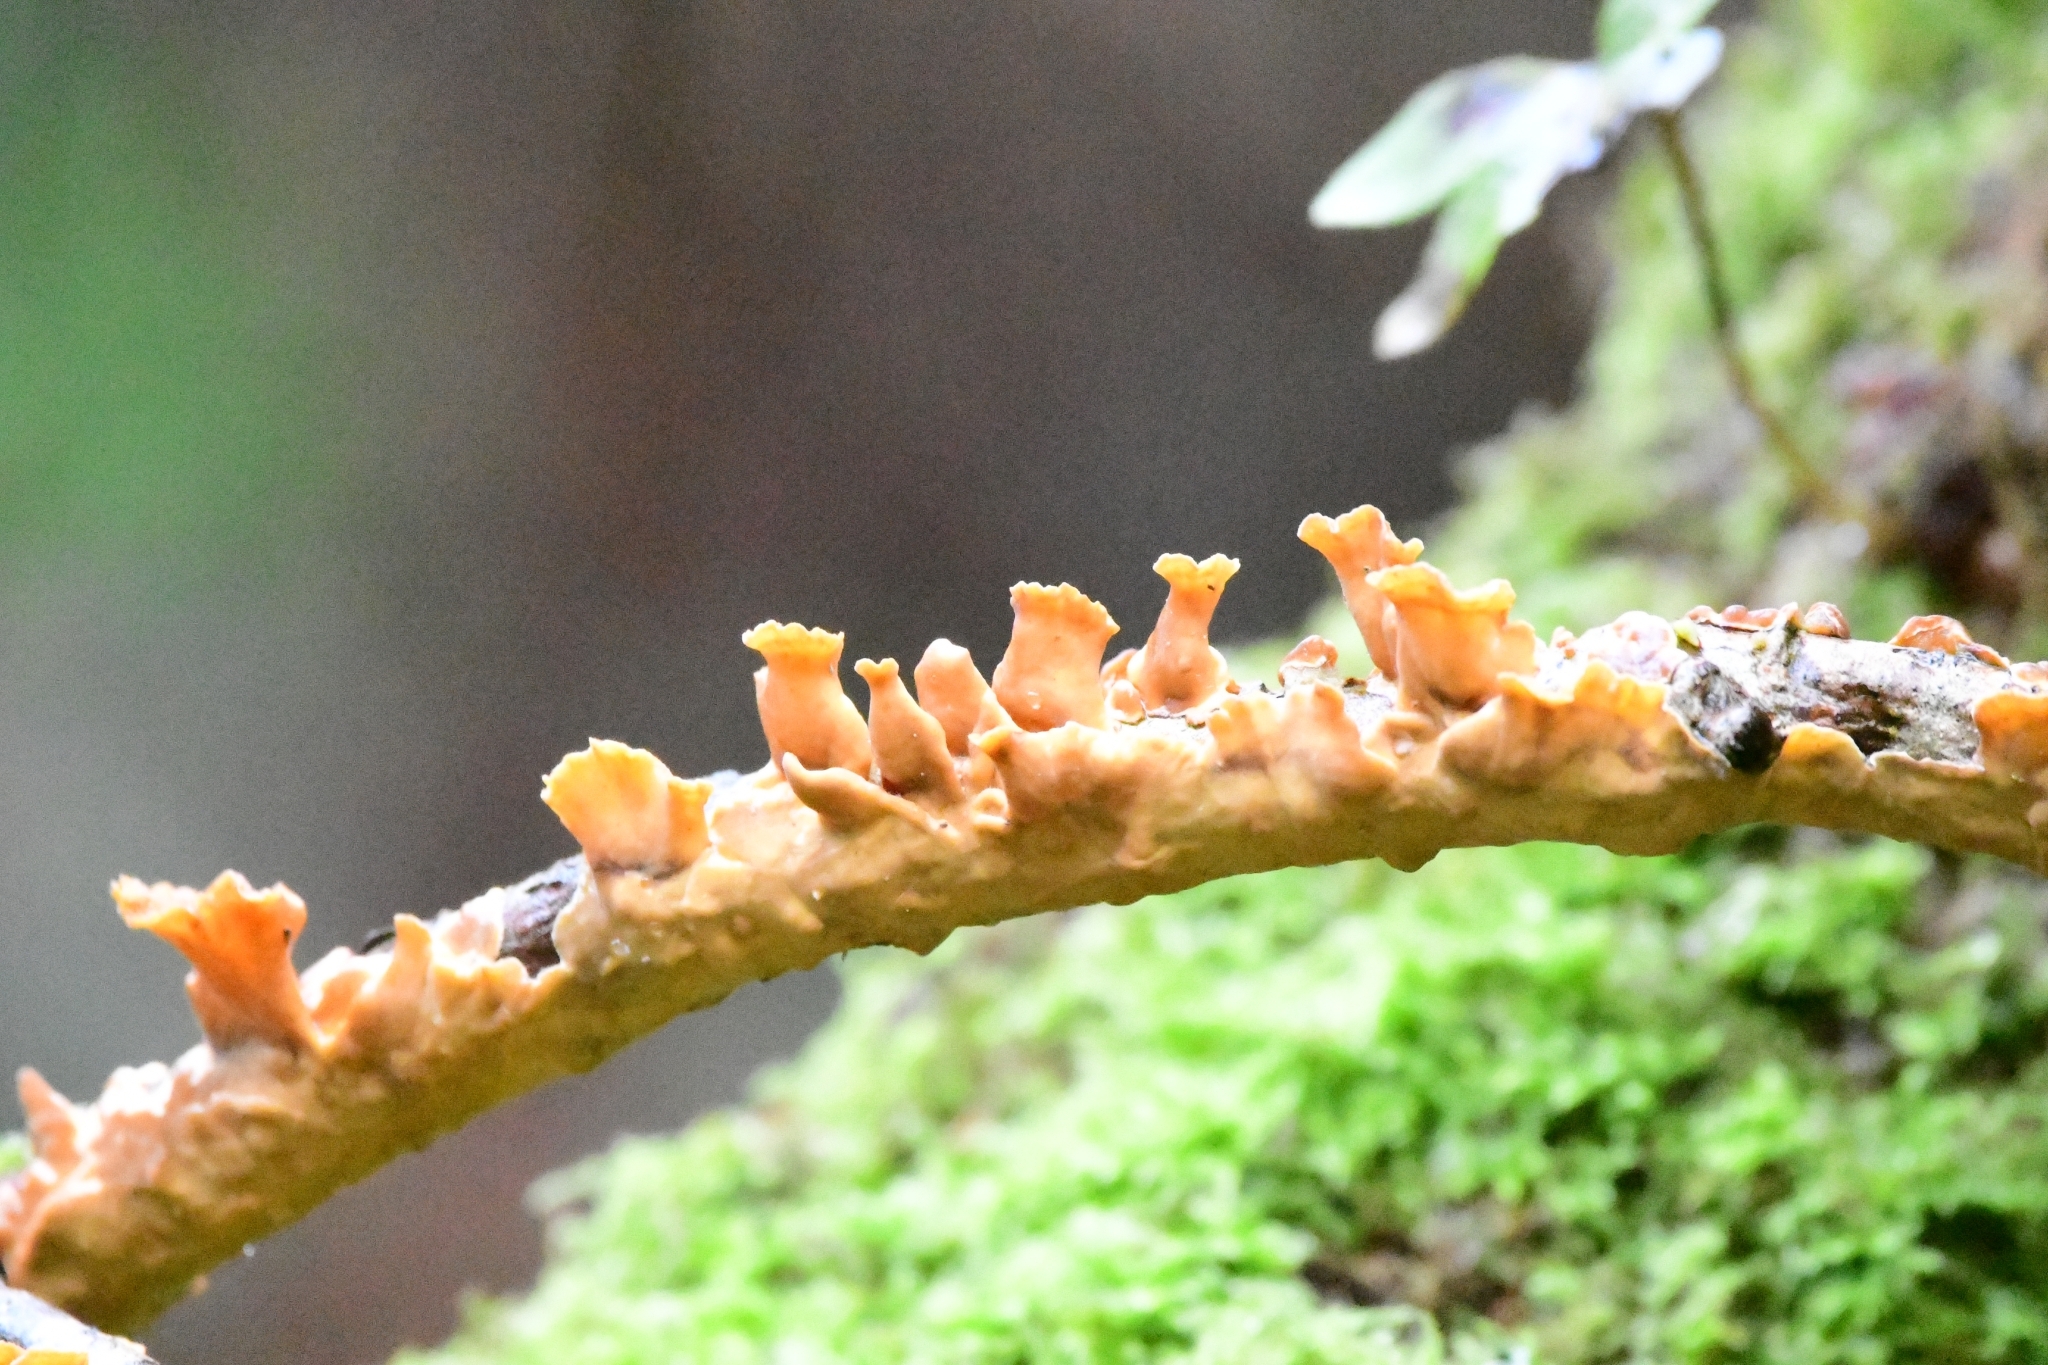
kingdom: Fungi
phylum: Basidiomycota
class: Agaricomycetes
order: Russulales
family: Stereaceae
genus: Stereum
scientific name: Stereum hirsutum
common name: Hairy curtain crust
